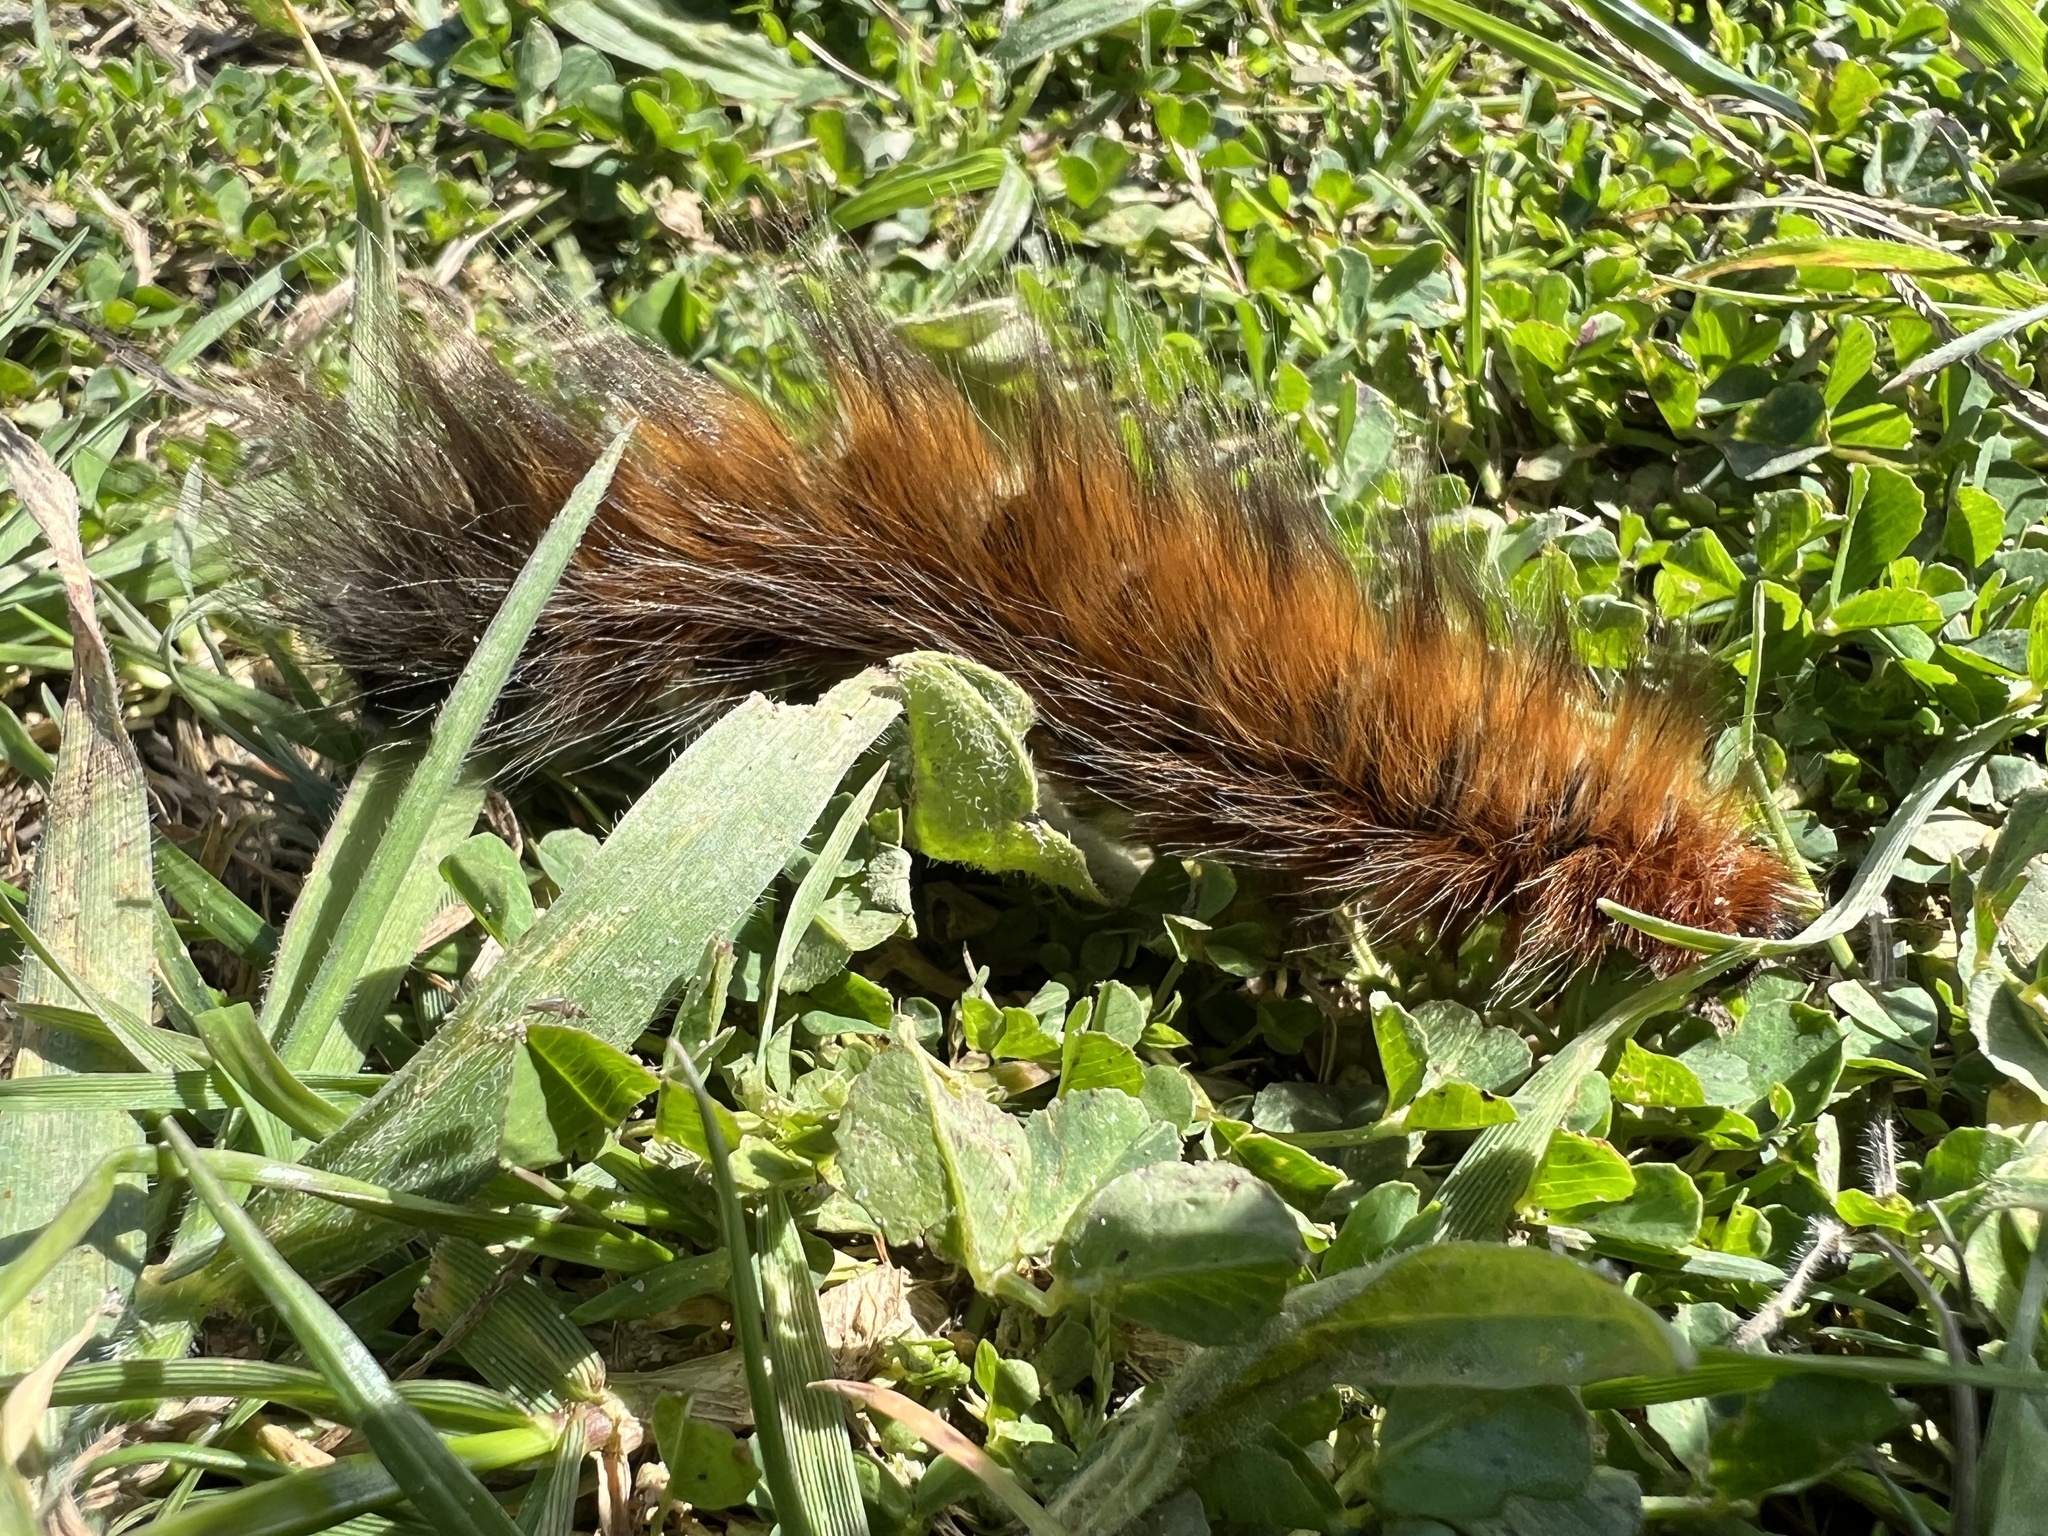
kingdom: Animalia
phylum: Arthropoda
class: Insecta
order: Lepidoptera
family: Lasiocampidae
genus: Mesocelis
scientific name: Mesocelis monticola
